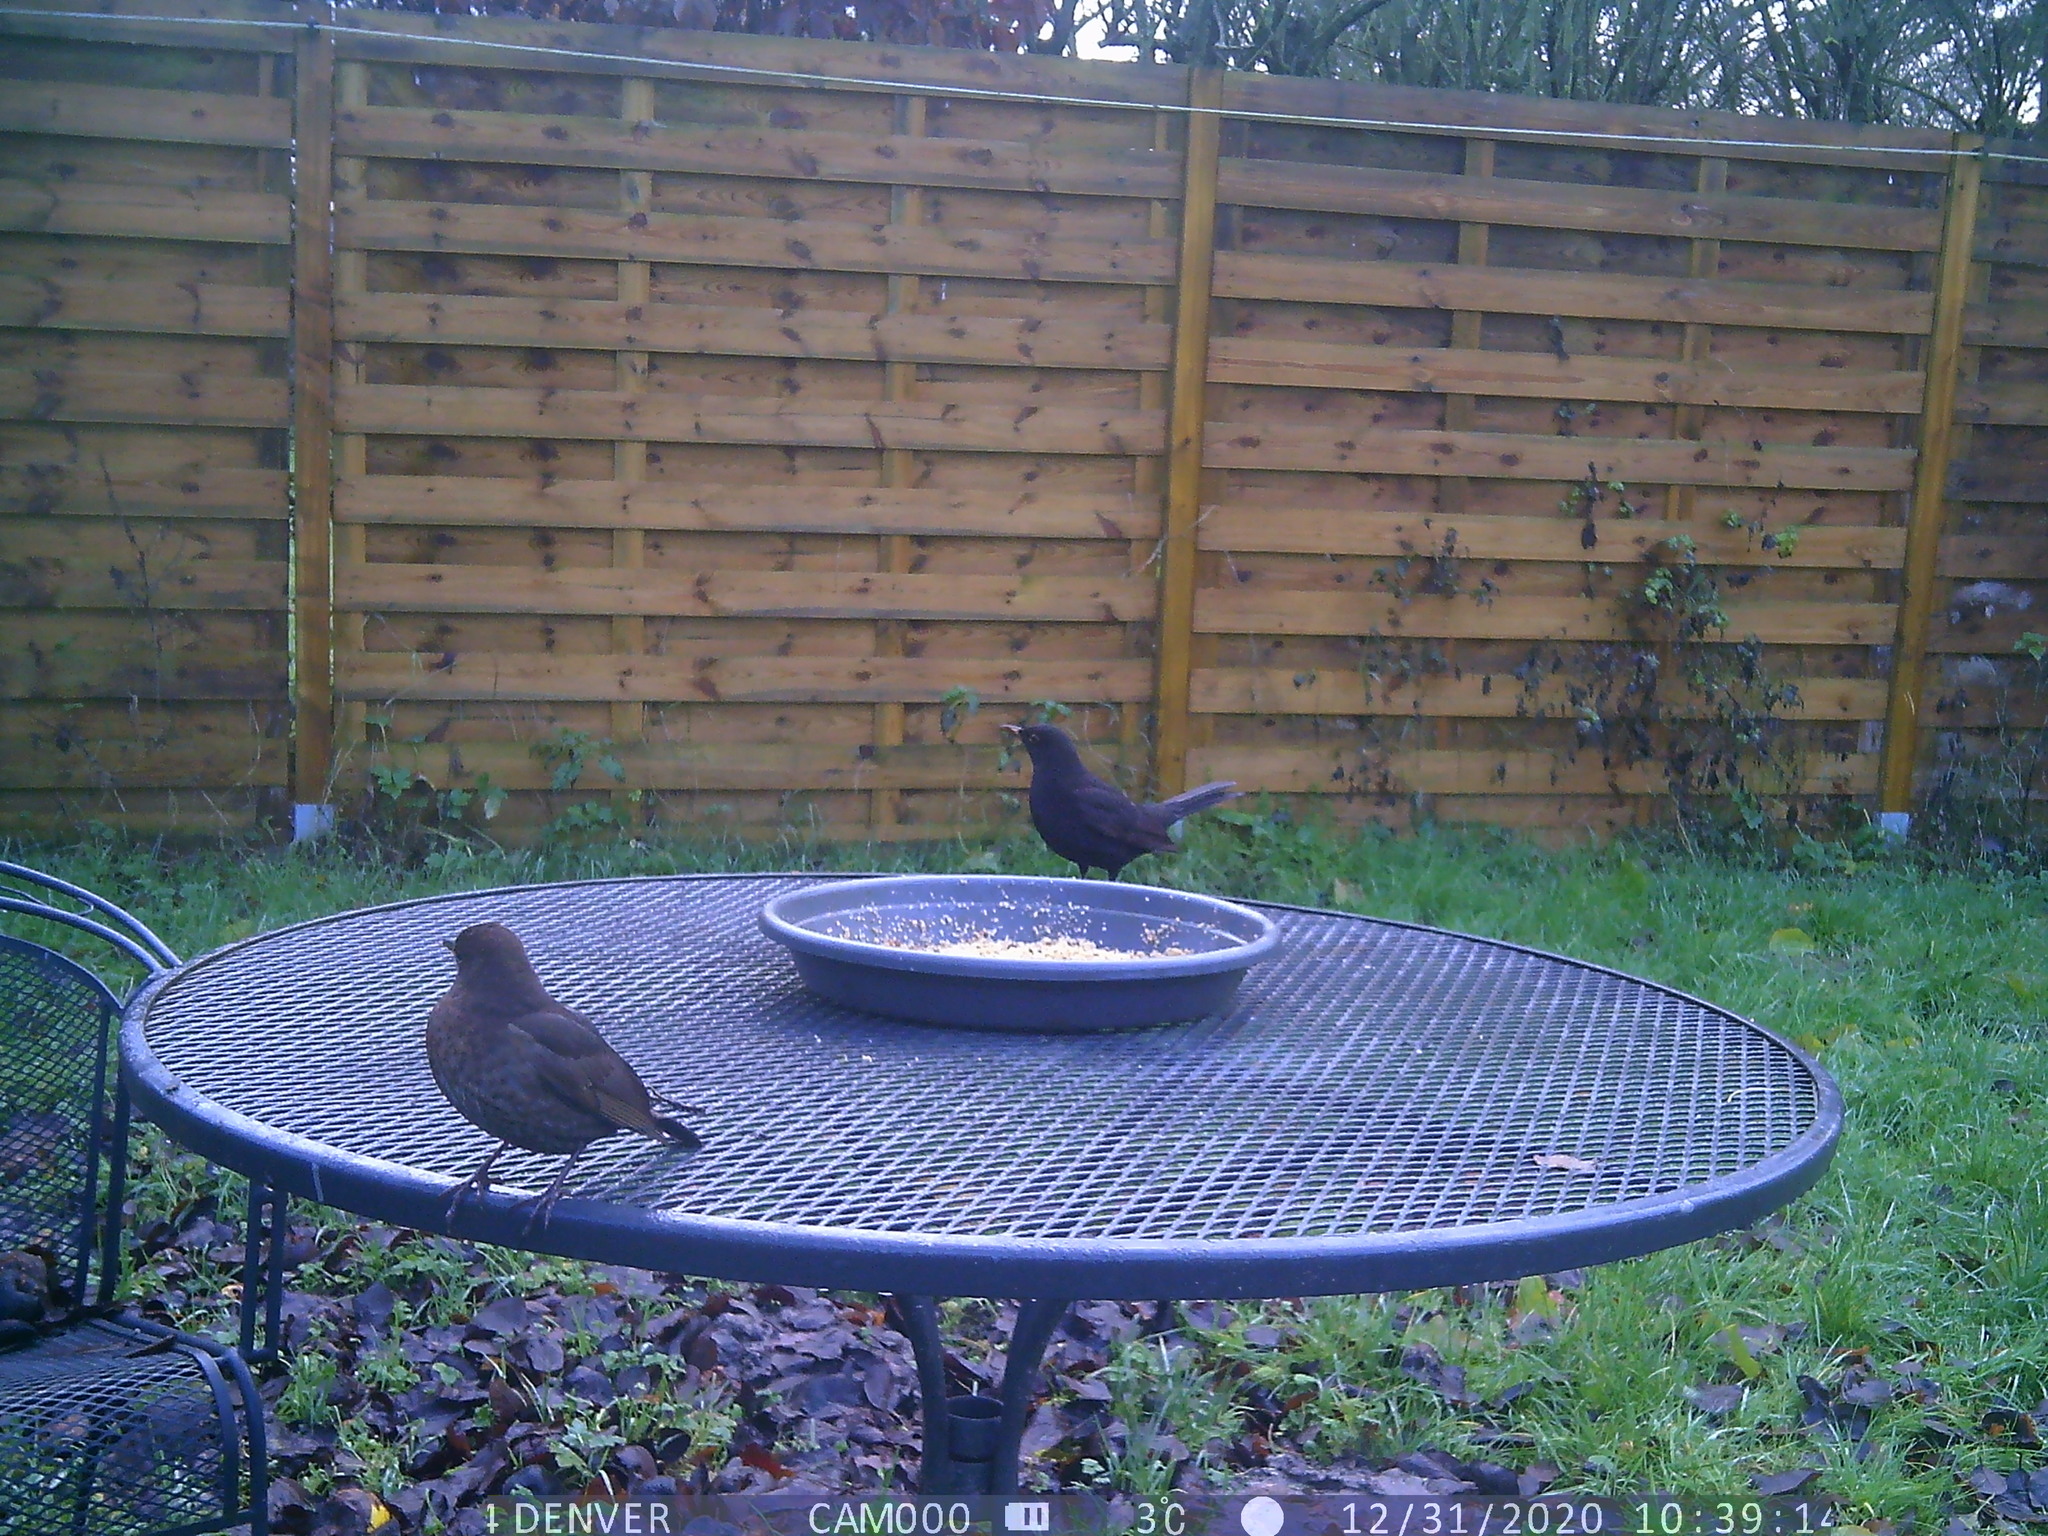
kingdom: Animalia
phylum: Chordata
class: Aves
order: Passeriformes
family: Turdidae
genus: Turdus
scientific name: Turdus merula
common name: Common blackbird
